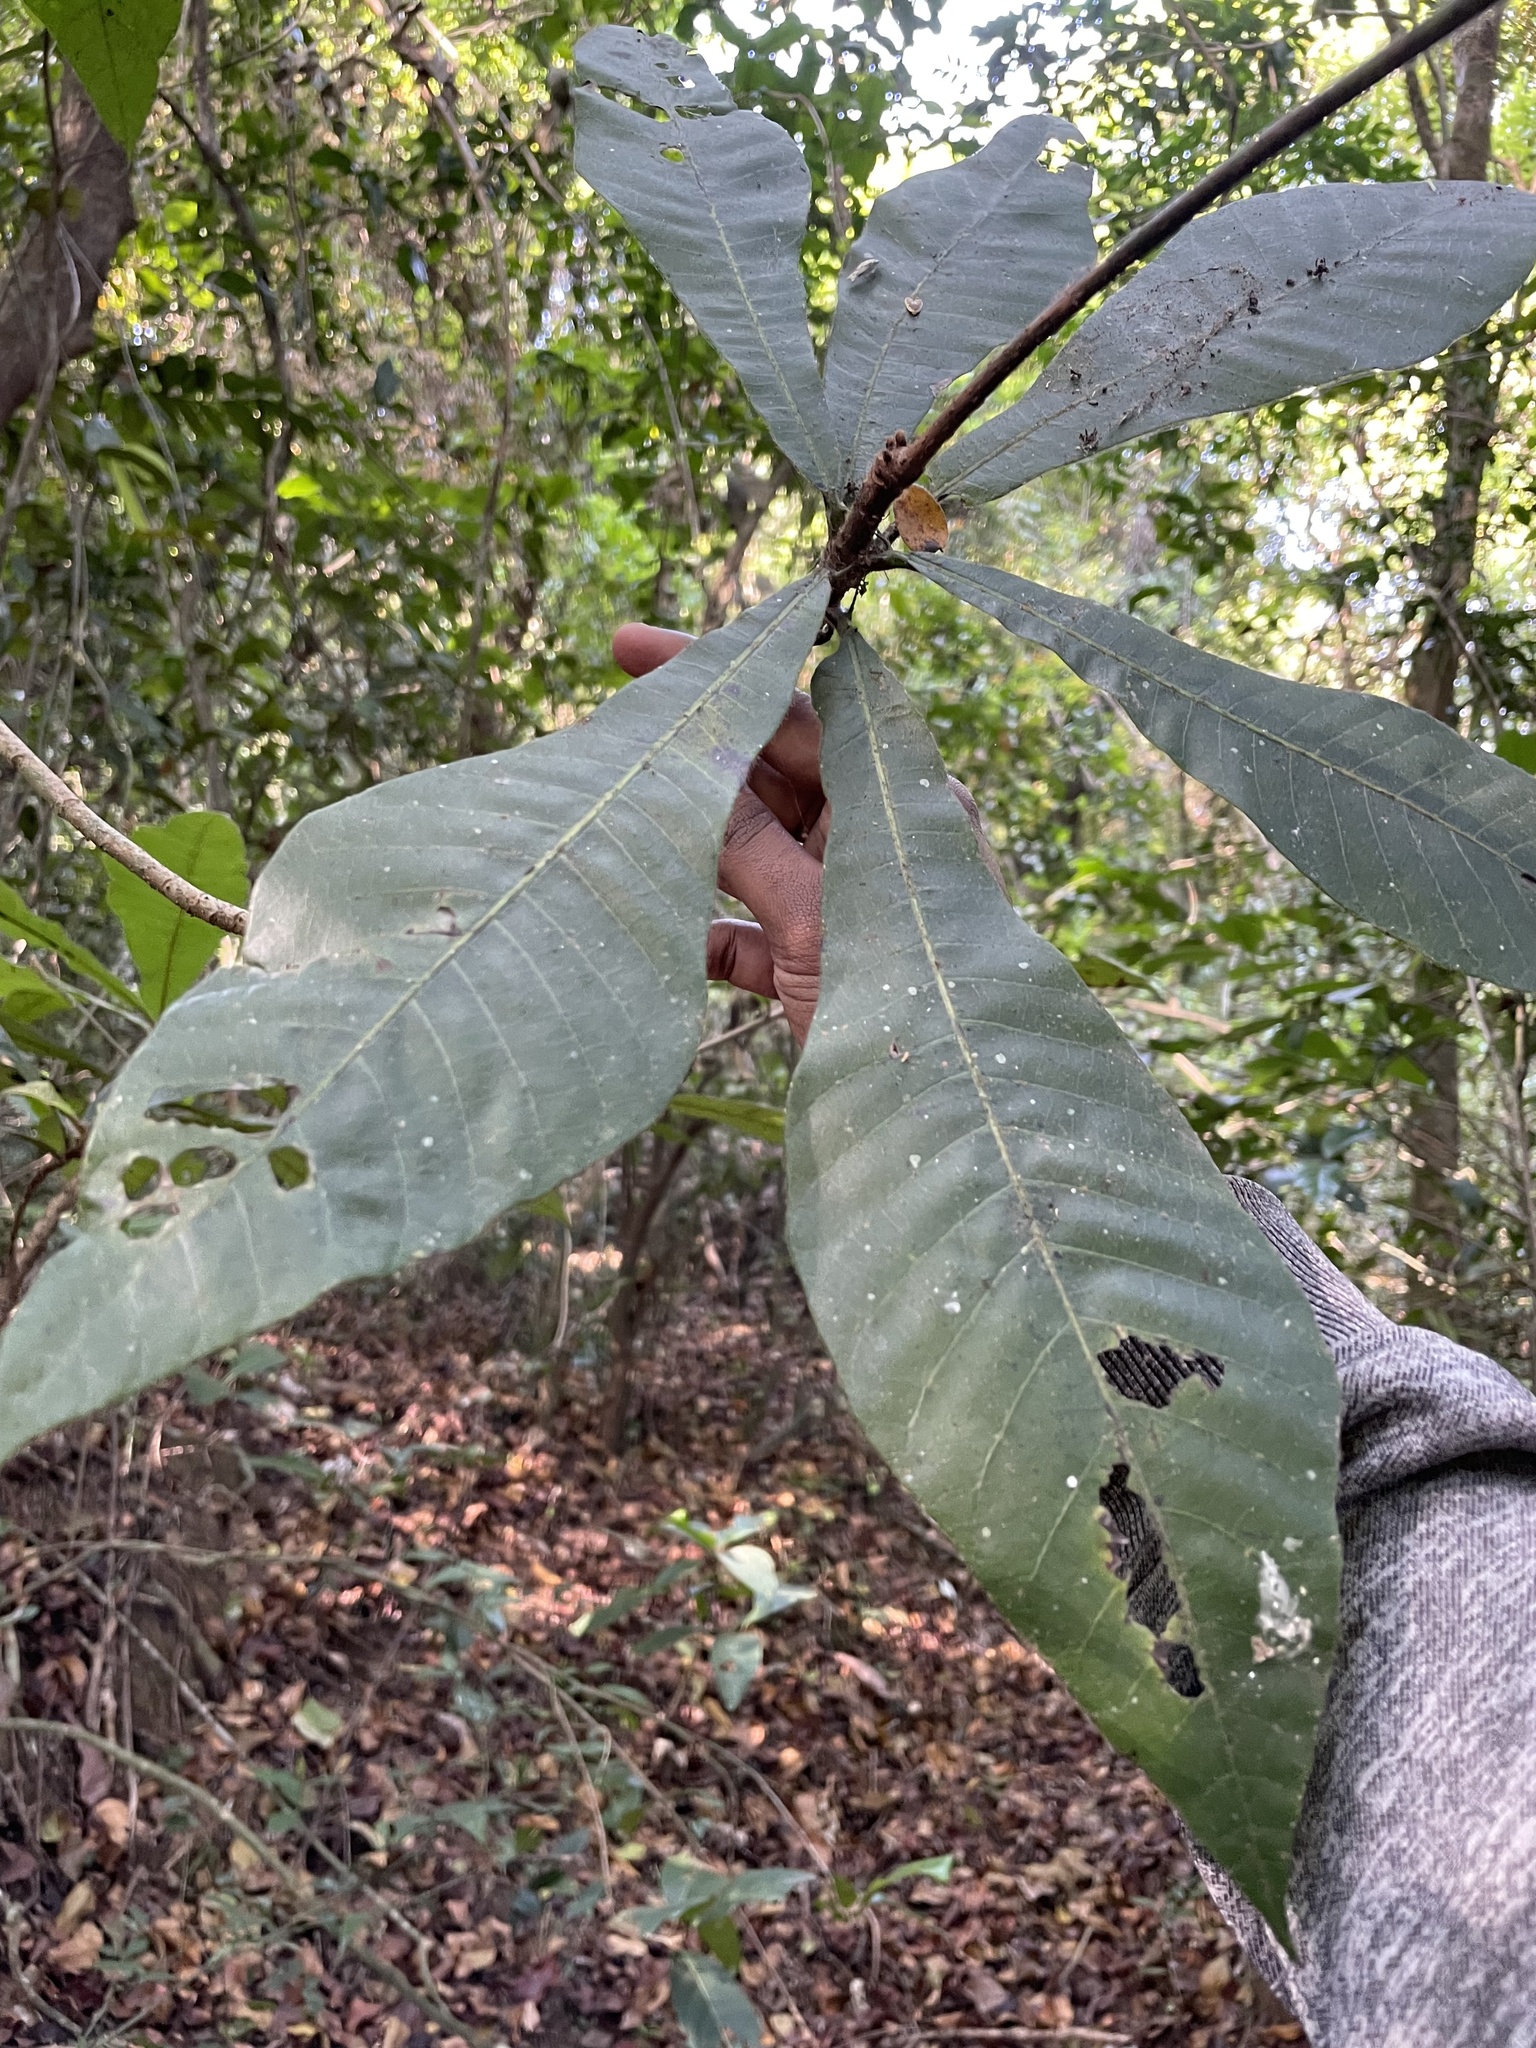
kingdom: Plantae
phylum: Tracheophyta
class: Magnoliopsida
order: Sapindales
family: Anacardiaceae
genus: Holigarna
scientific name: Holigarna grahamii
